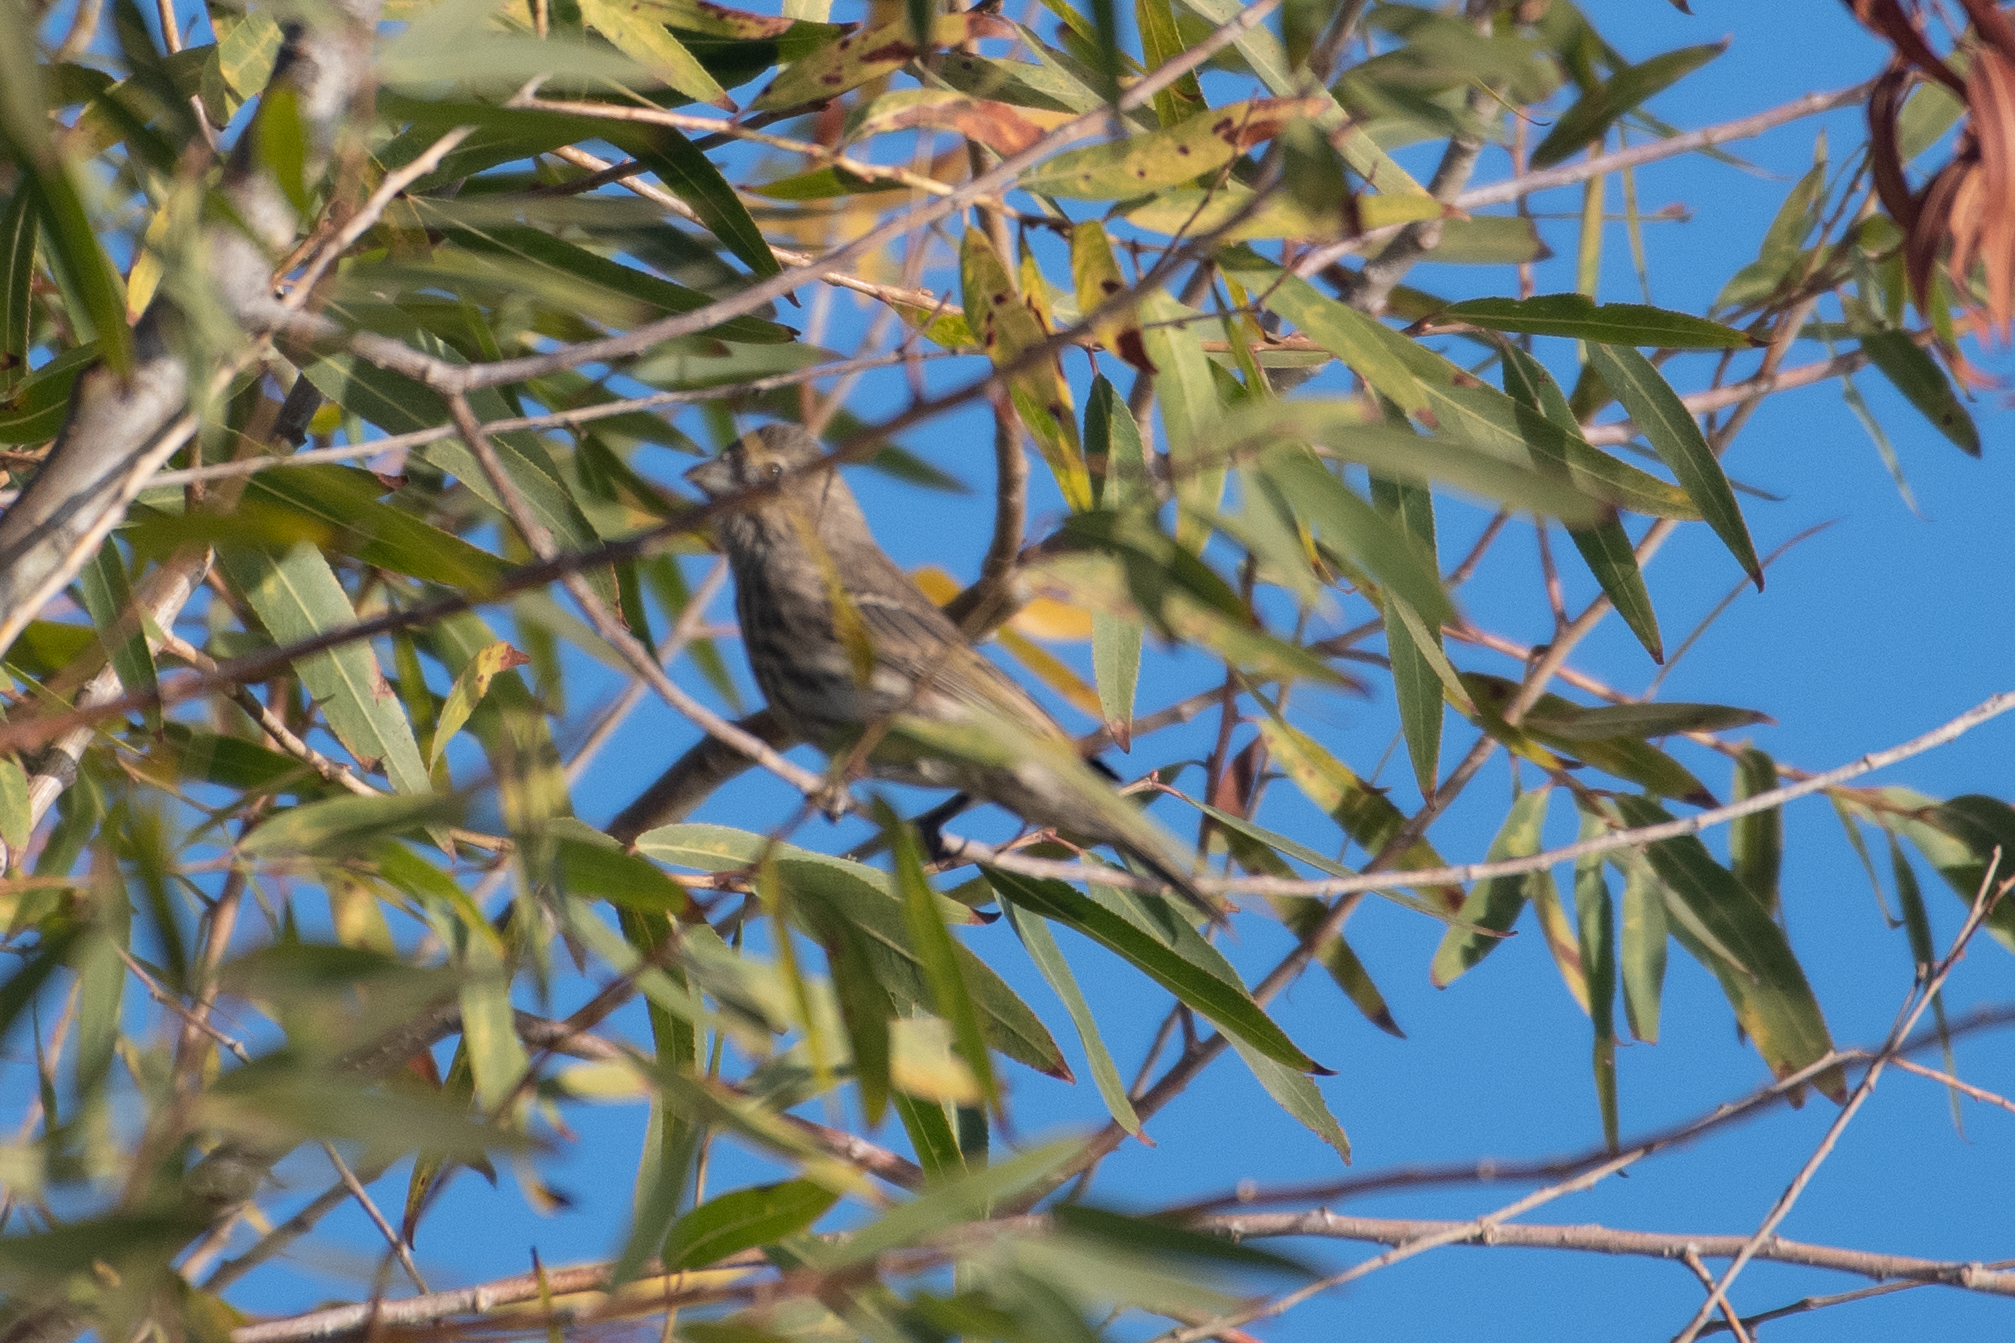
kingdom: Animalia
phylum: Chordata
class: Aves
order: Passeriformes
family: Fringillidae
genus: Haemorhous
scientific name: Haemorhous mexicanus
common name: House finch
